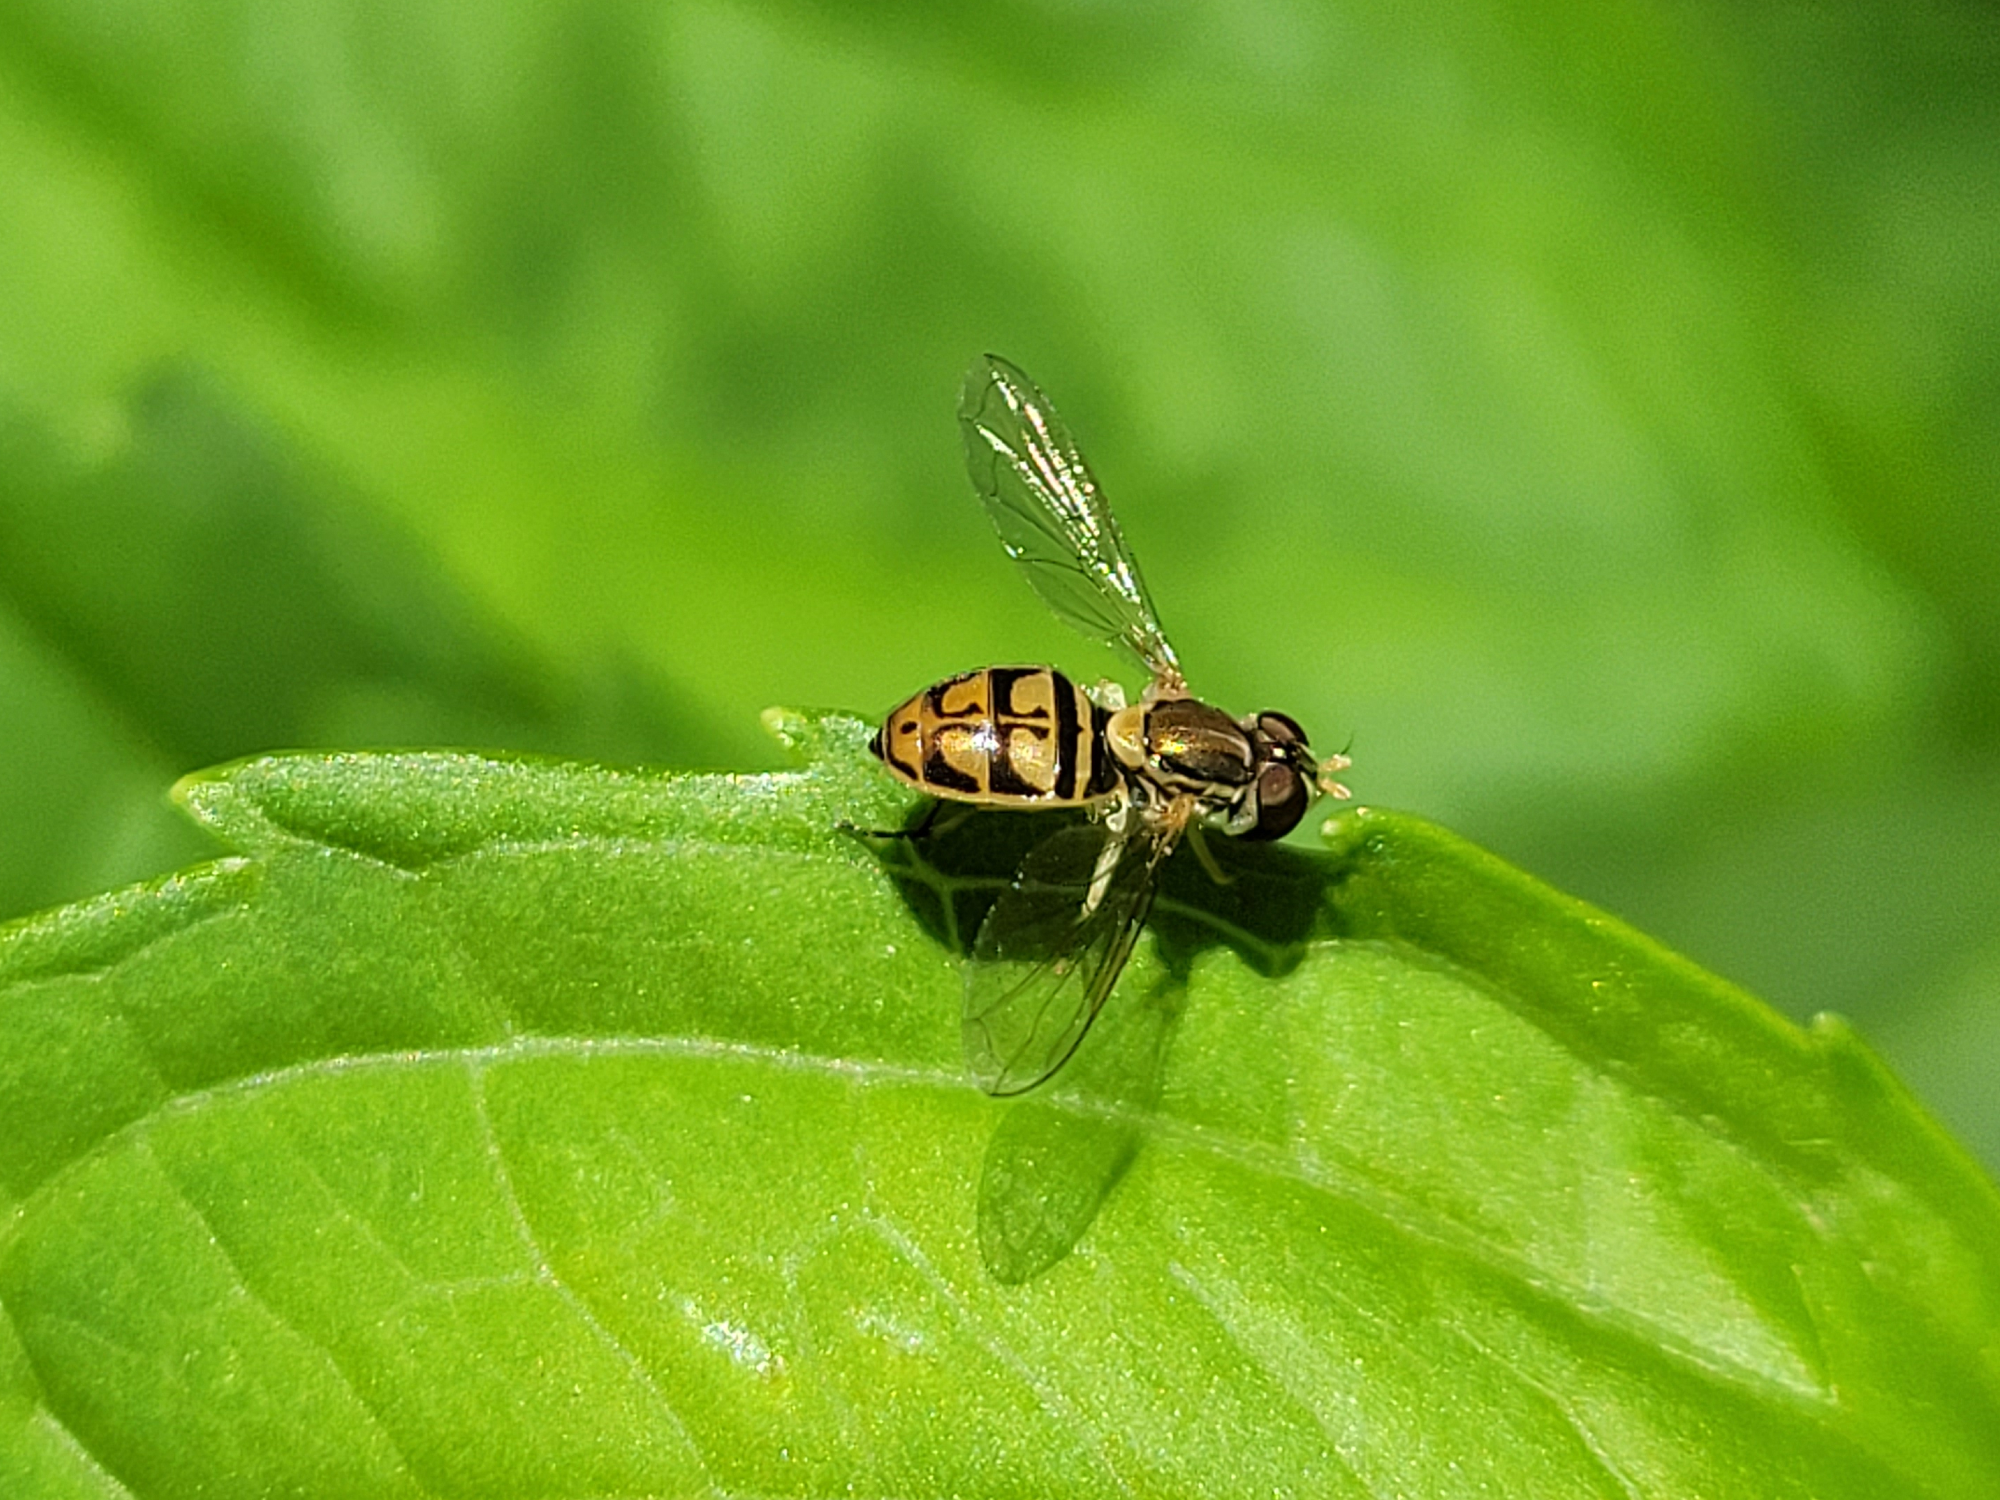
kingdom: Animalia
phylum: Arthropoda
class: Insecta
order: Diptera
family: Syrphidae
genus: Toxomerus
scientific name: Toxomerus marginatus
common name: Syrphid fly
